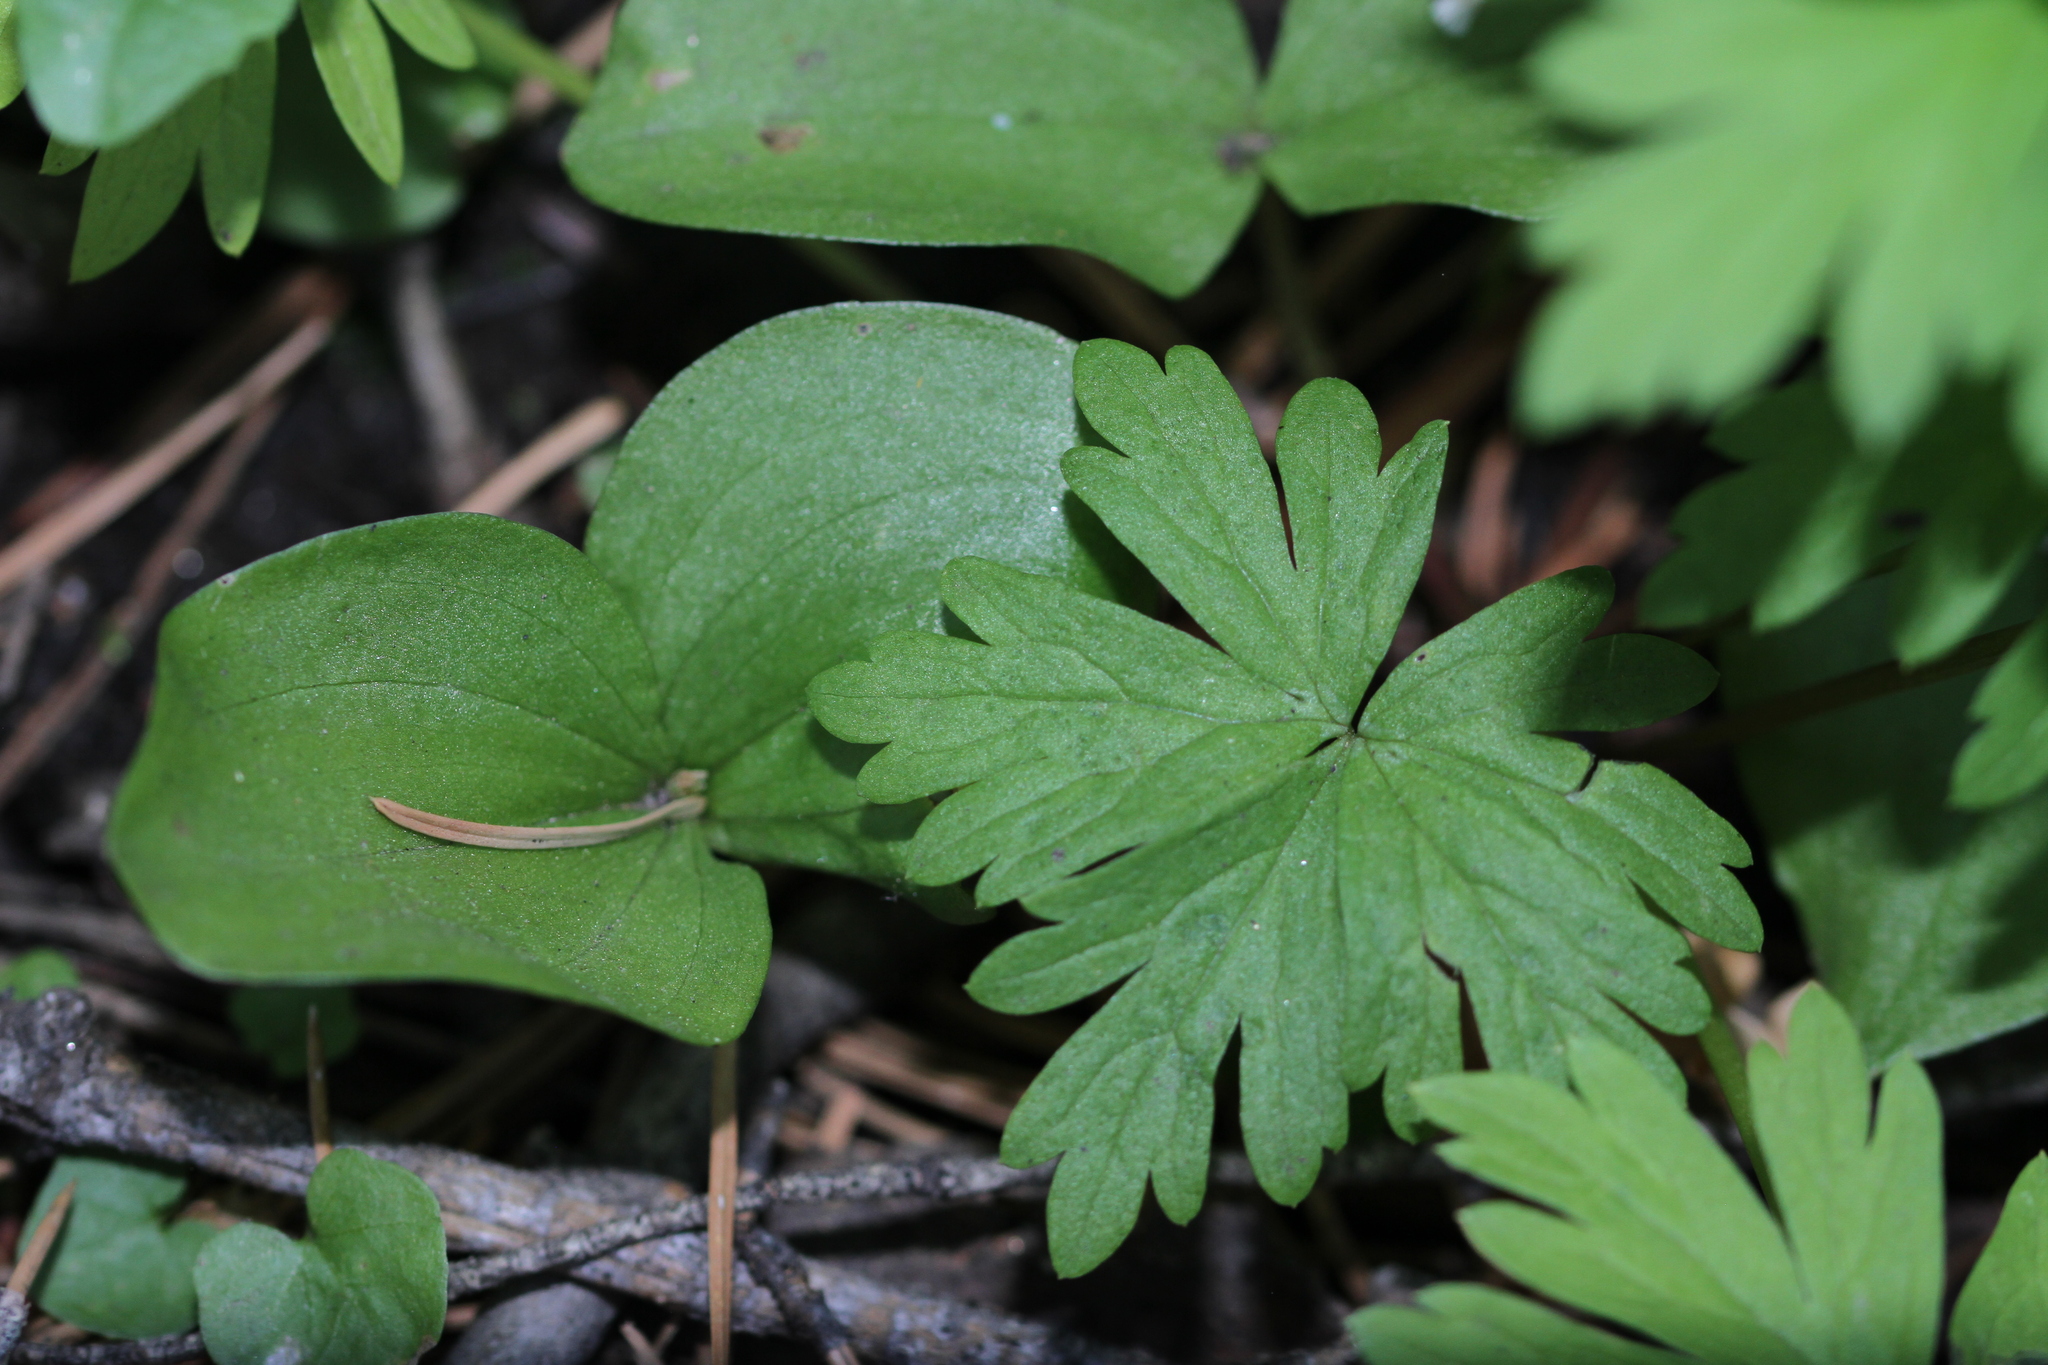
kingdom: Plantae
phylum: Tracheophyta
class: Liliopsida
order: Asparagales
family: Orchidaceae
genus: Neottia
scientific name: Neottia convallarioides
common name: Broadleaf twayblade
